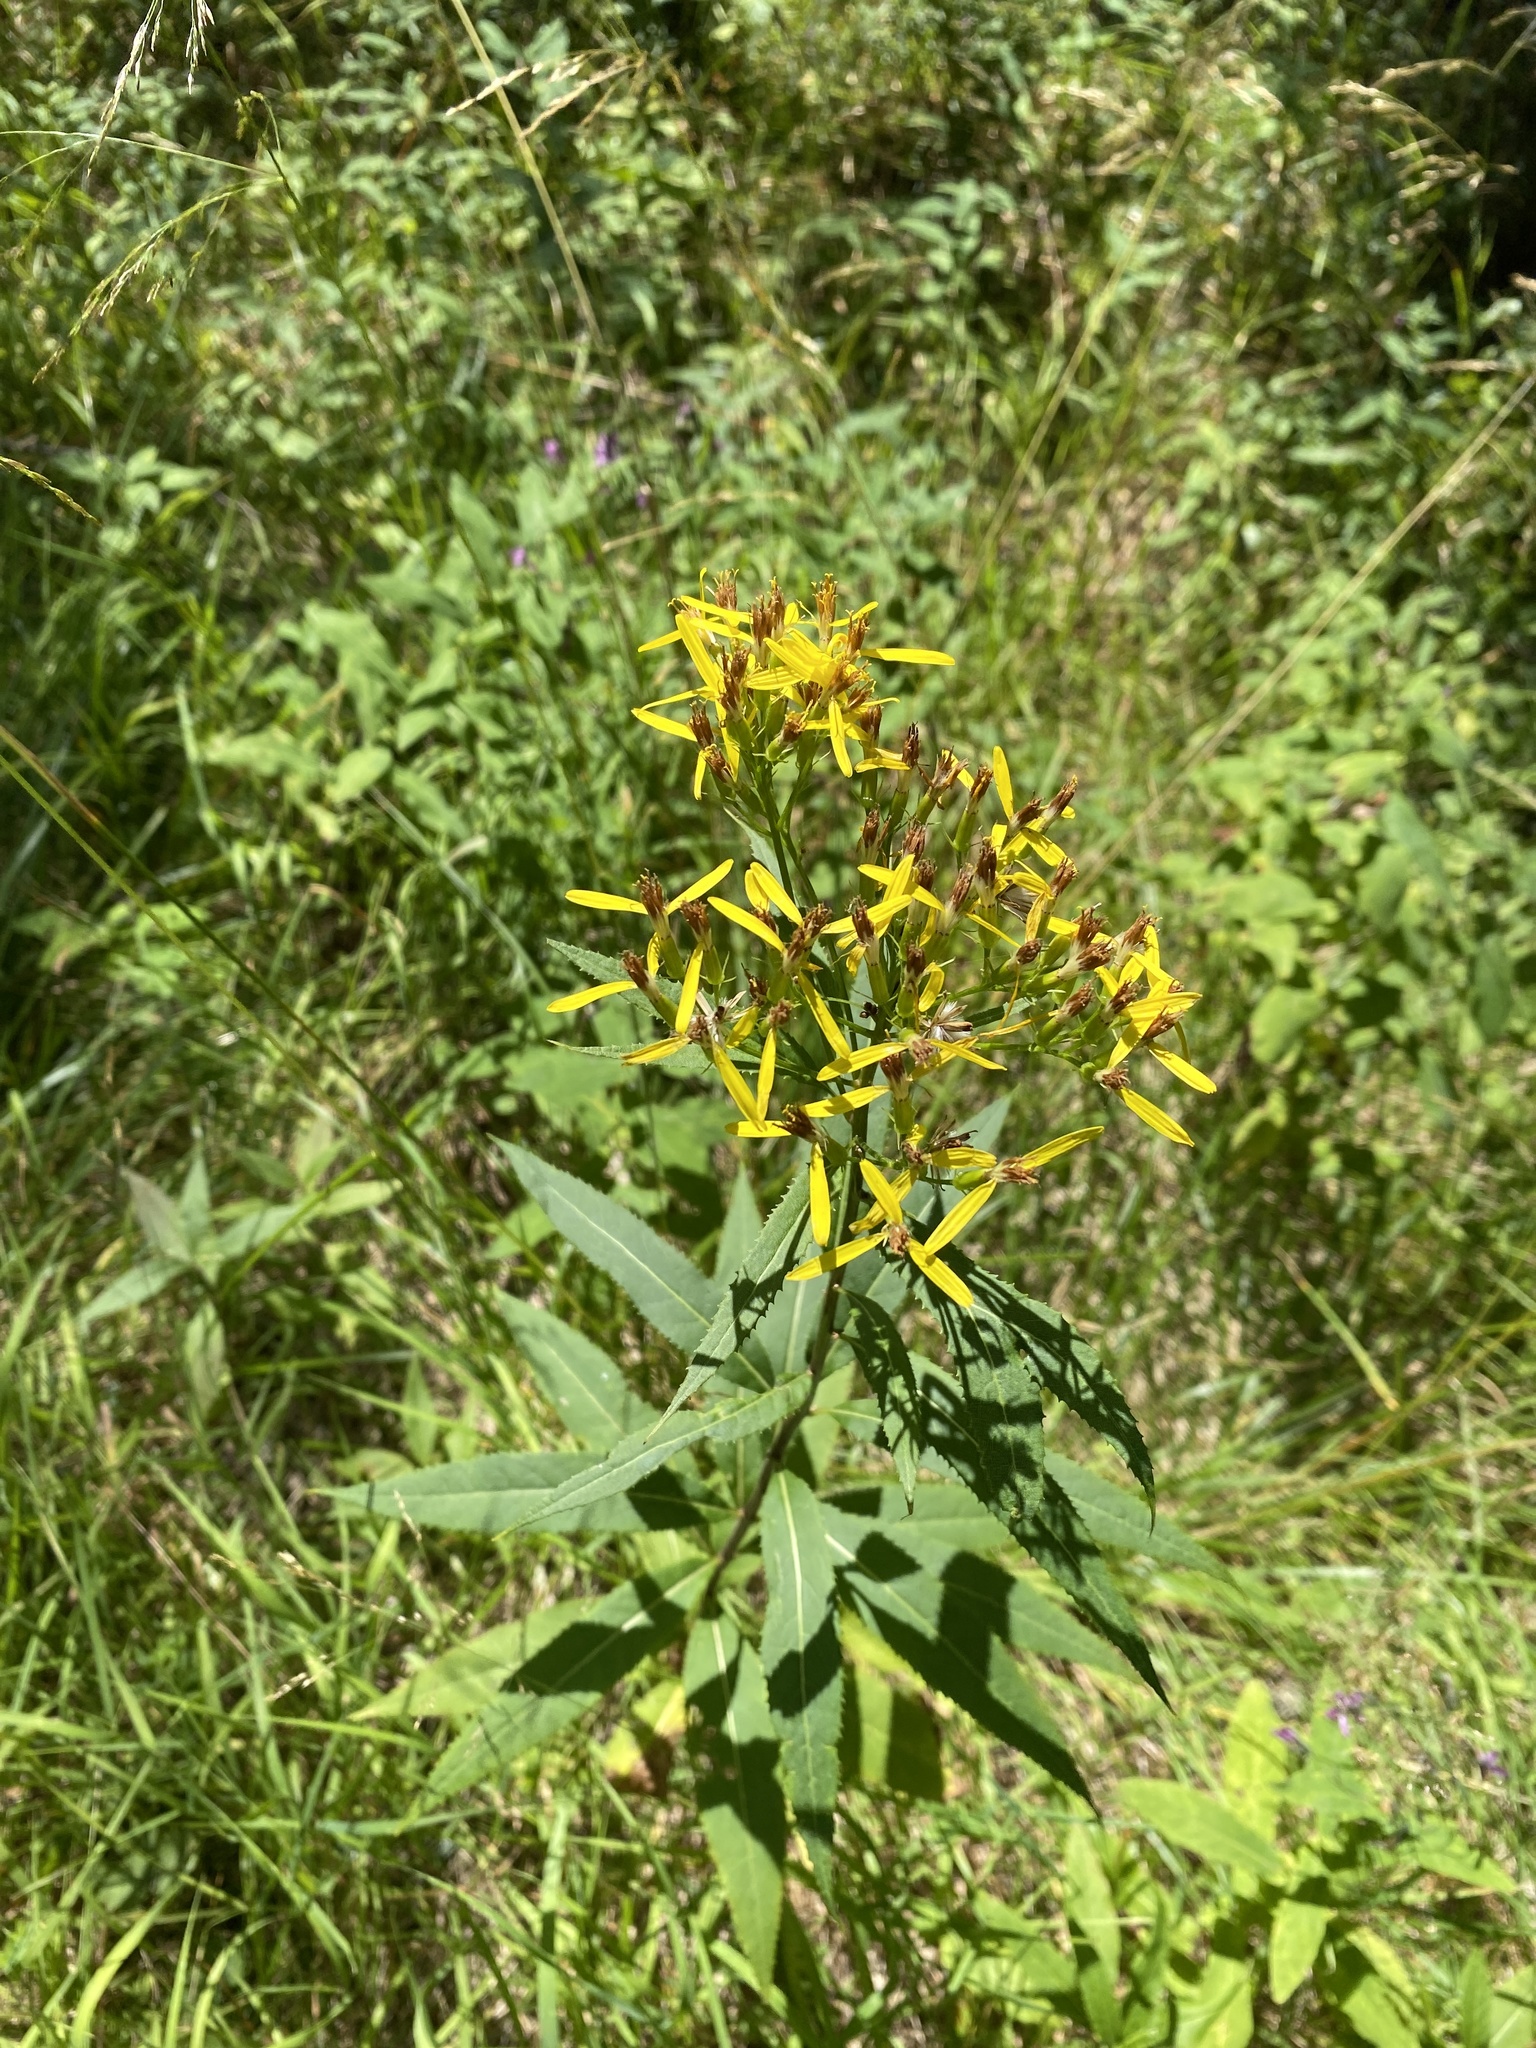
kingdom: Plantae
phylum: Tracheophyta
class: Magnoliopsida
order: Asterales
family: Asteraceae
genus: Senecio
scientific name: Senecio ovatus
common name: Wood ragwort
